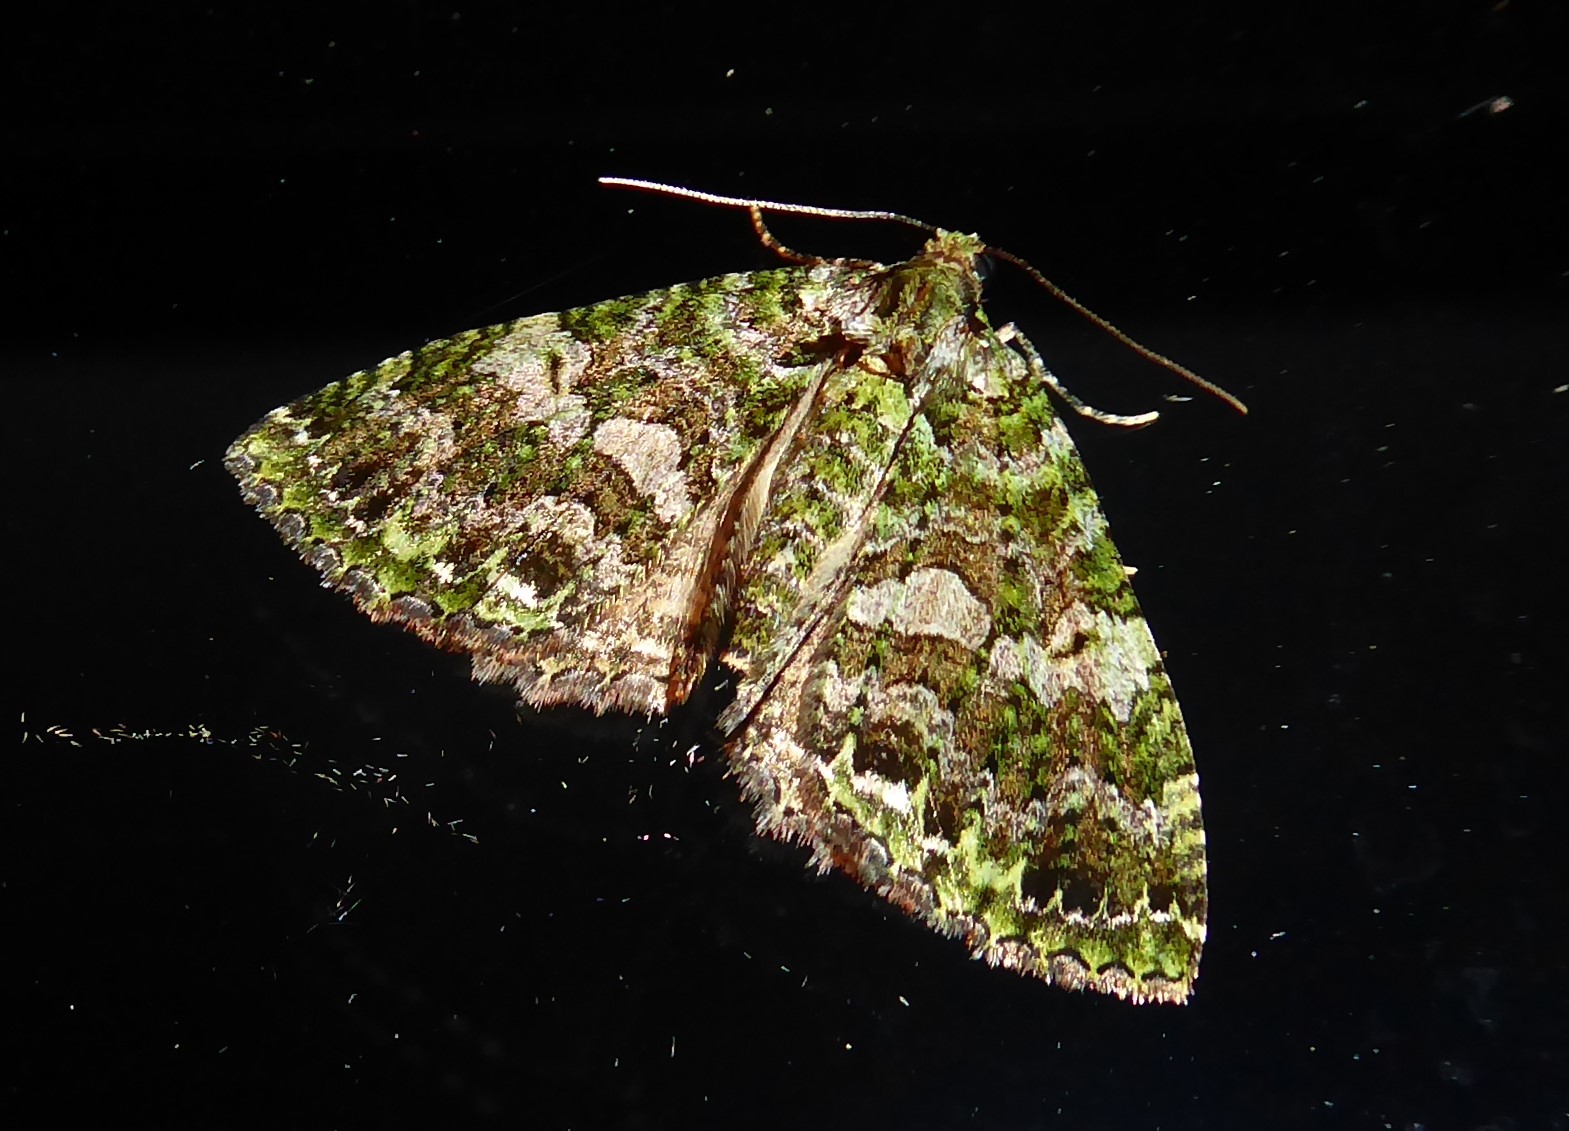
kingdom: Animalia
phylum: Arthropoda
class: Insecta
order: Lepidoptera
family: Geometridae
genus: Austrocidaria
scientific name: Austrocidaria similata
